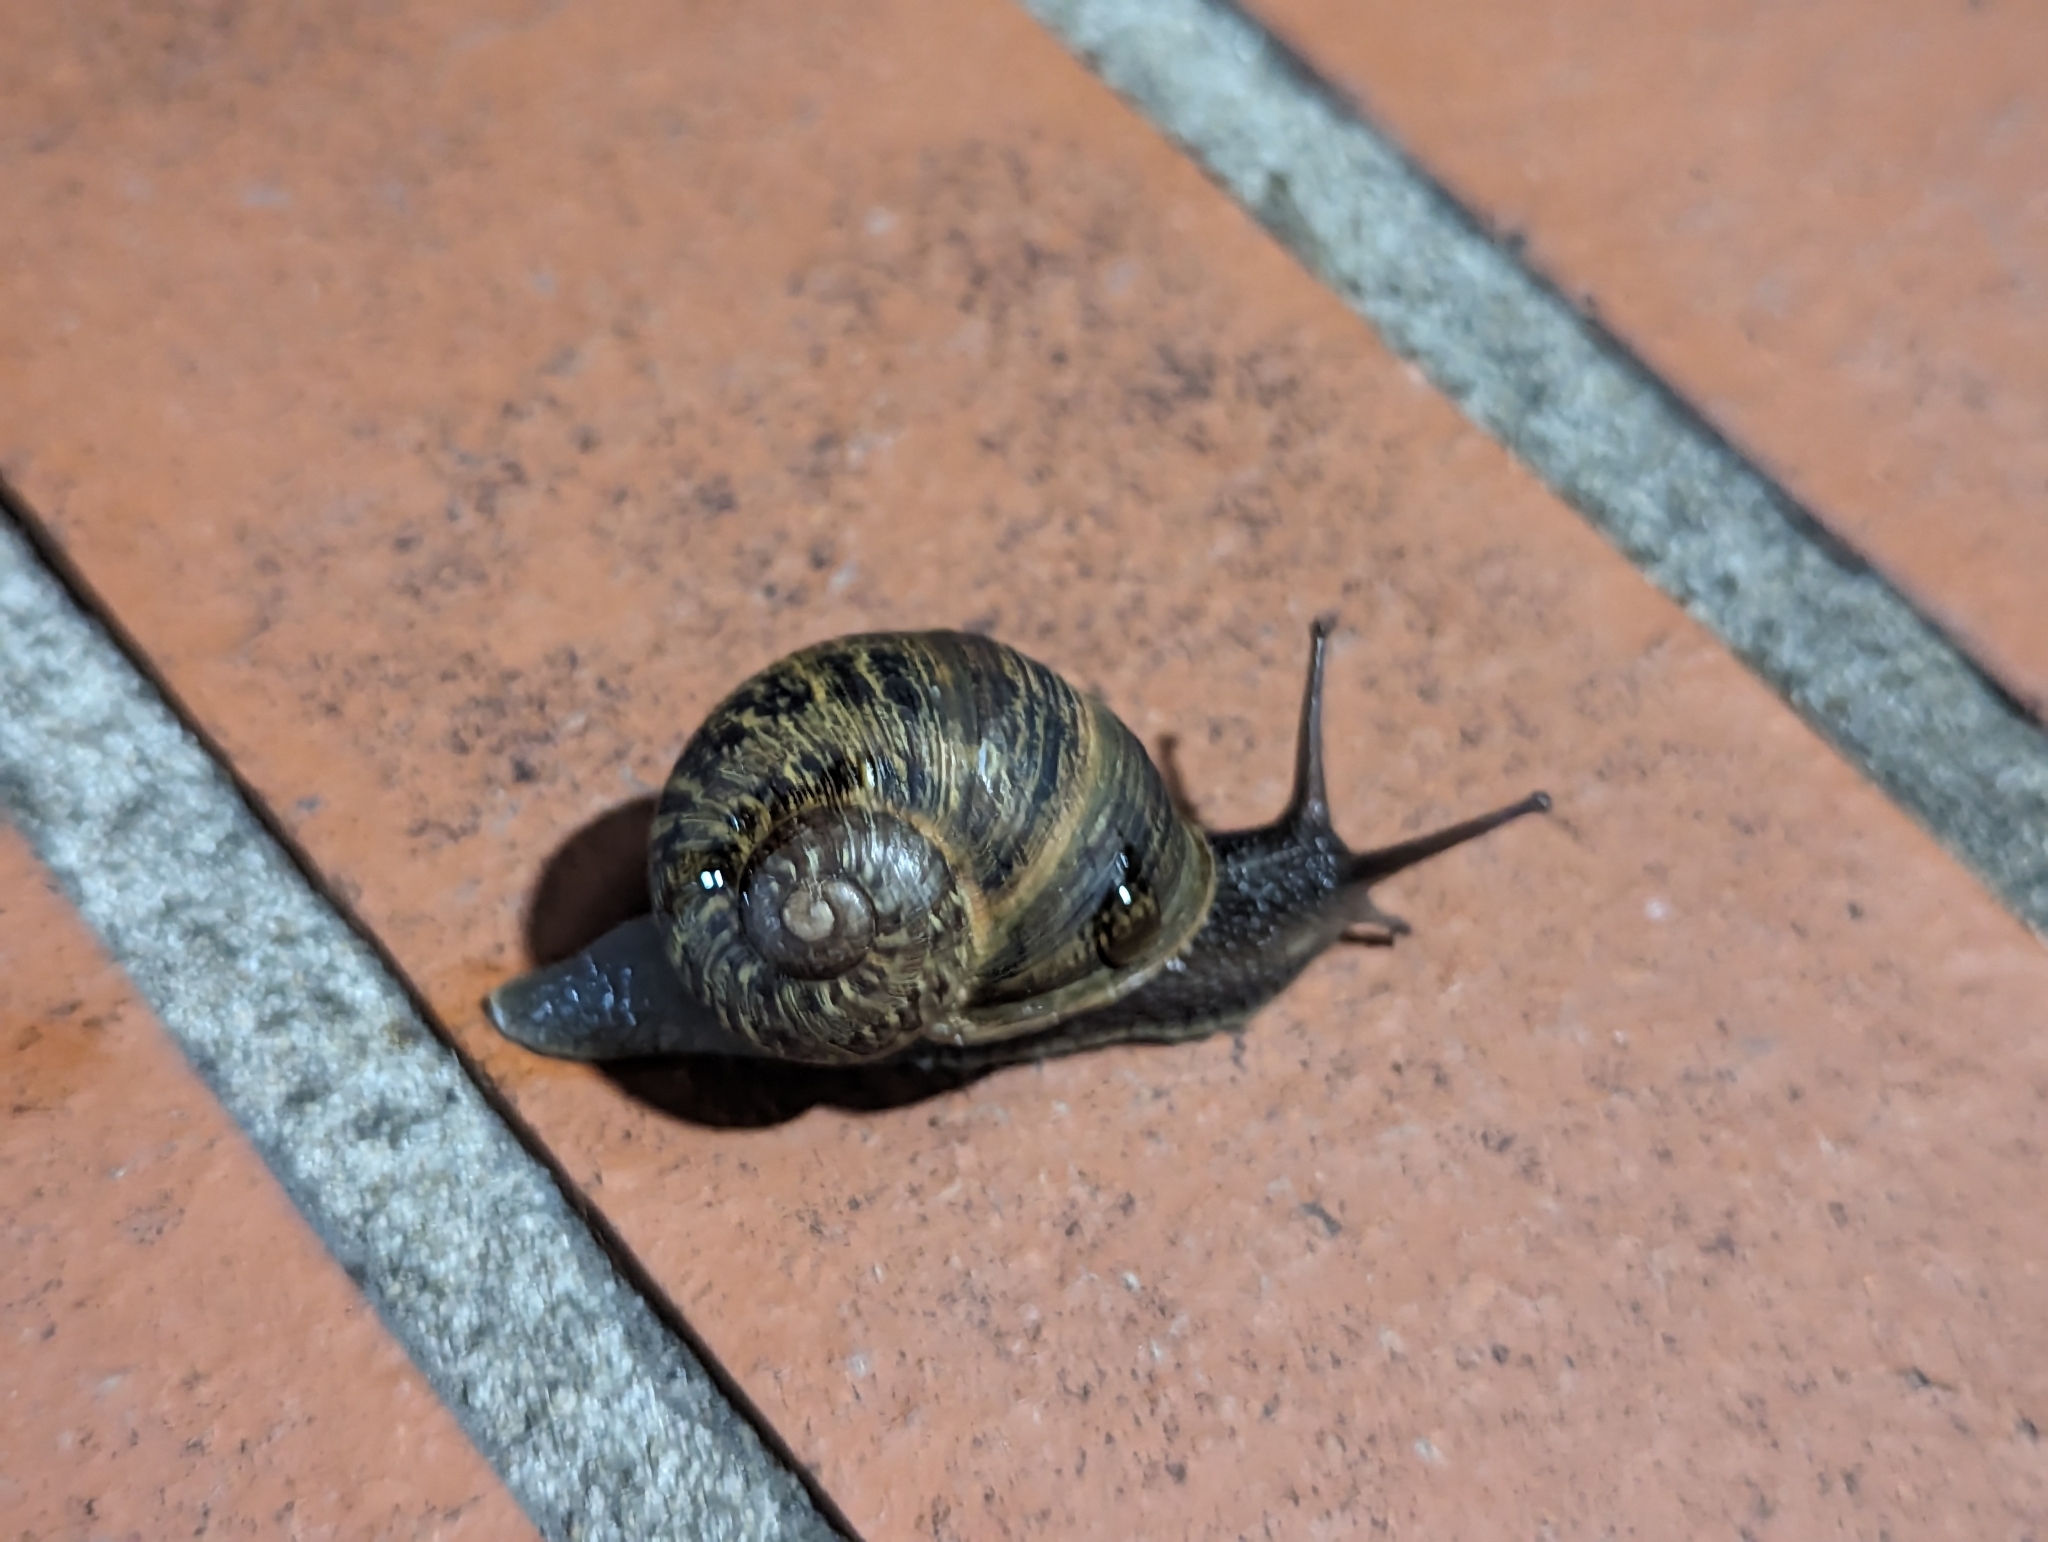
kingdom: Animalia
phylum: Mollusca
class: Gastropoda
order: Stylommatophora
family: Helicidae
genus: Cornu
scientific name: Cornu aspersum
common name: Brown garden snail
